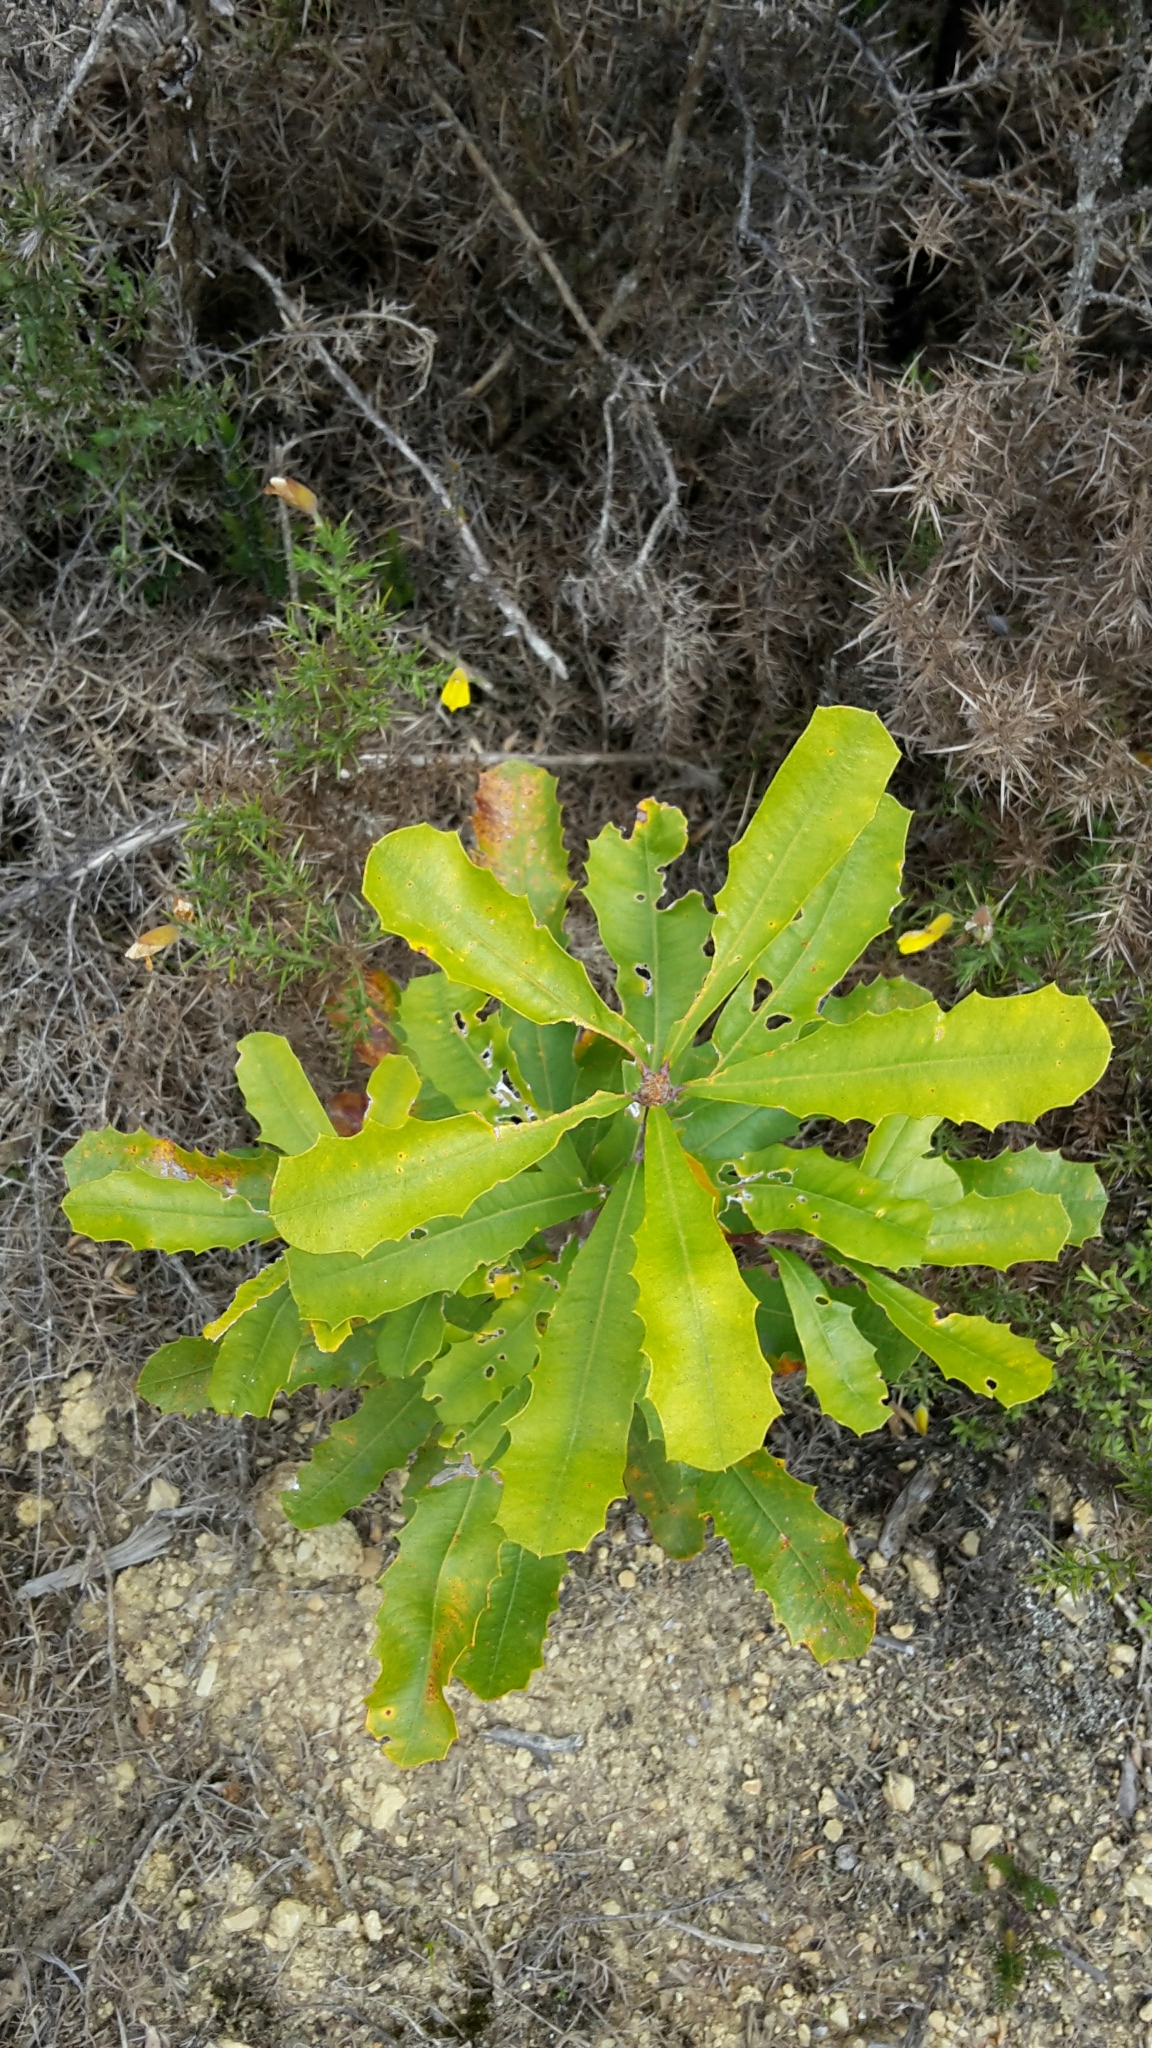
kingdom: Plantae
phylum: Tracheophyta
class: Magnoliopsida
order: Proteales
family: Proteaceae
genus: Banksia
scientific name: Banksia integrifolia
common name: White-honeysuckle
